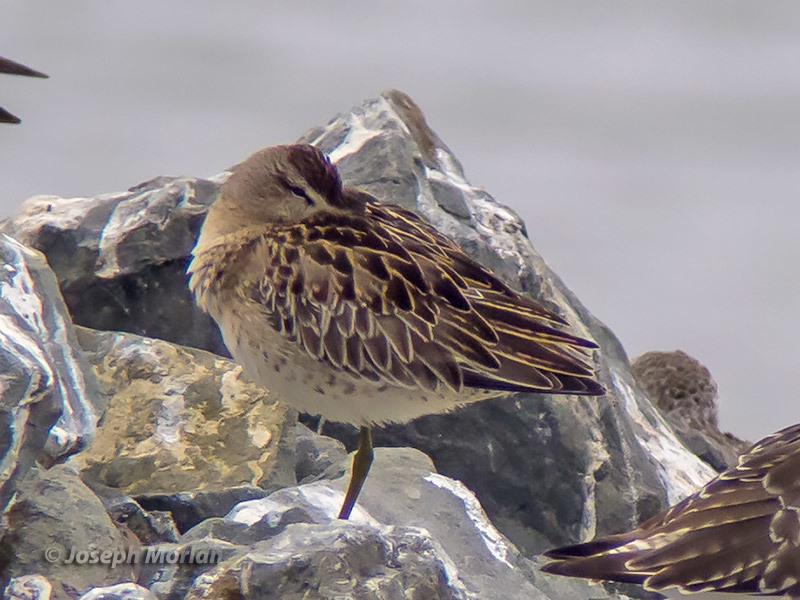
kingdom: Animalia
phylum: Chordata
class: Aves
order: Charadriiformes
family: Scolopacidae
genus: Limnodromus
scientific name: Limnodromus griseus
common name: Short-billed dowitcher
